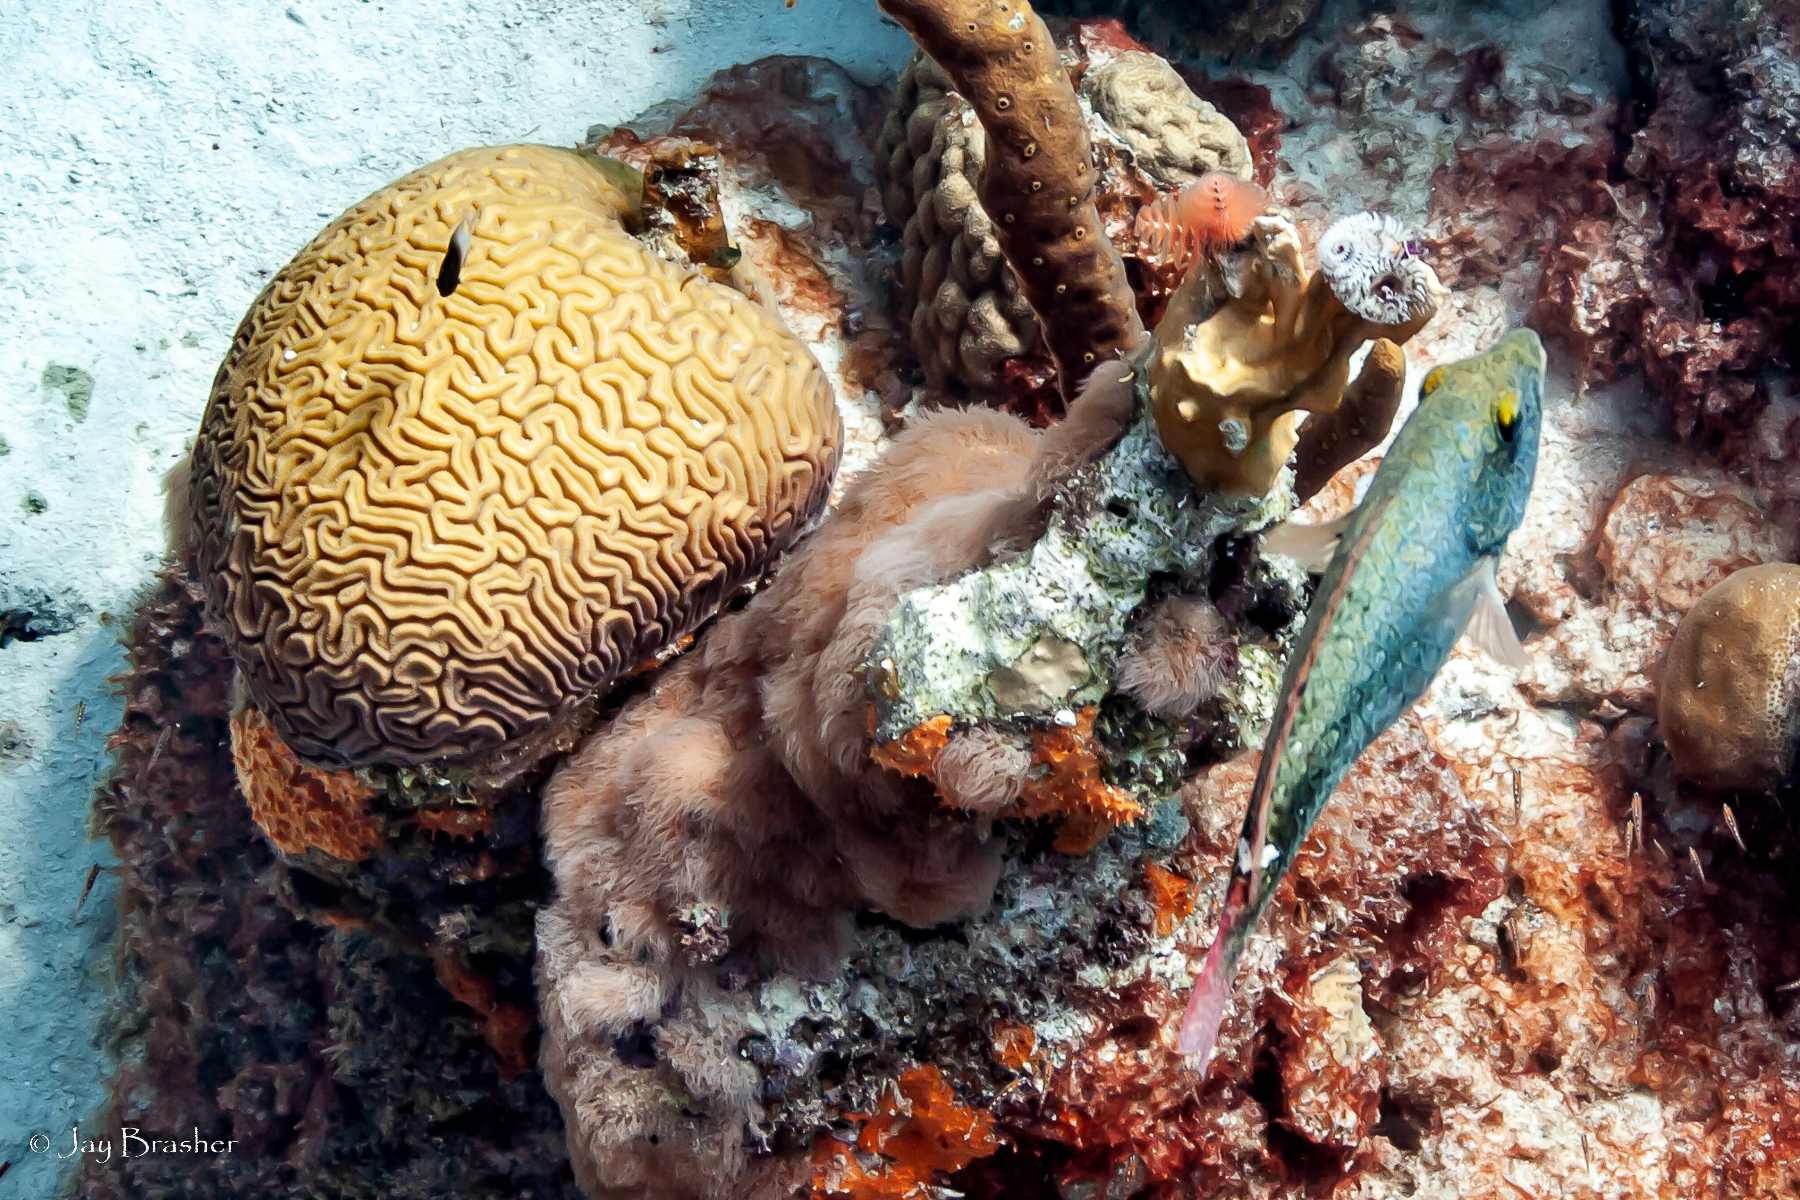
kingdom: Animalia
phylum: Chordata
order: Perciformes
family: Scaridae
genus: Sparisoma
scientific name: Sparisoma aurofrenatum
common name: Redband parrotfish
